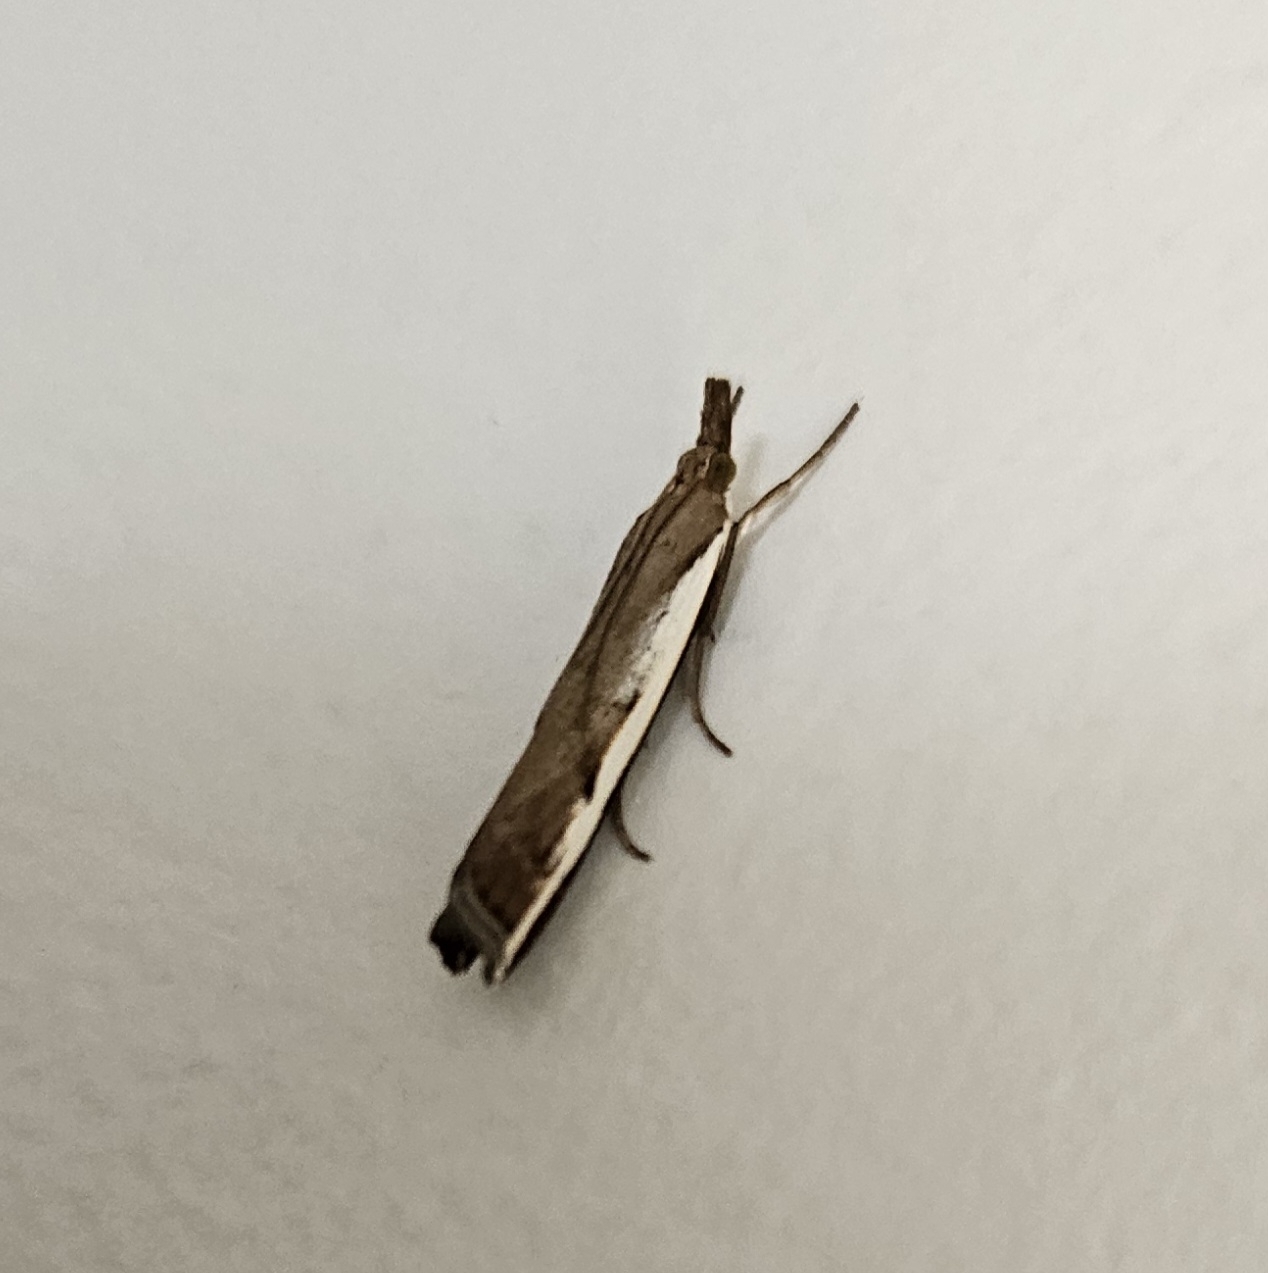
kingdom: Animalia
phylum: Arthropoda
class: Insecta
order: Lepidoptera
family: Crambidae
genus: Orocrambus
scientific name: Orocrambus flexuosellus
